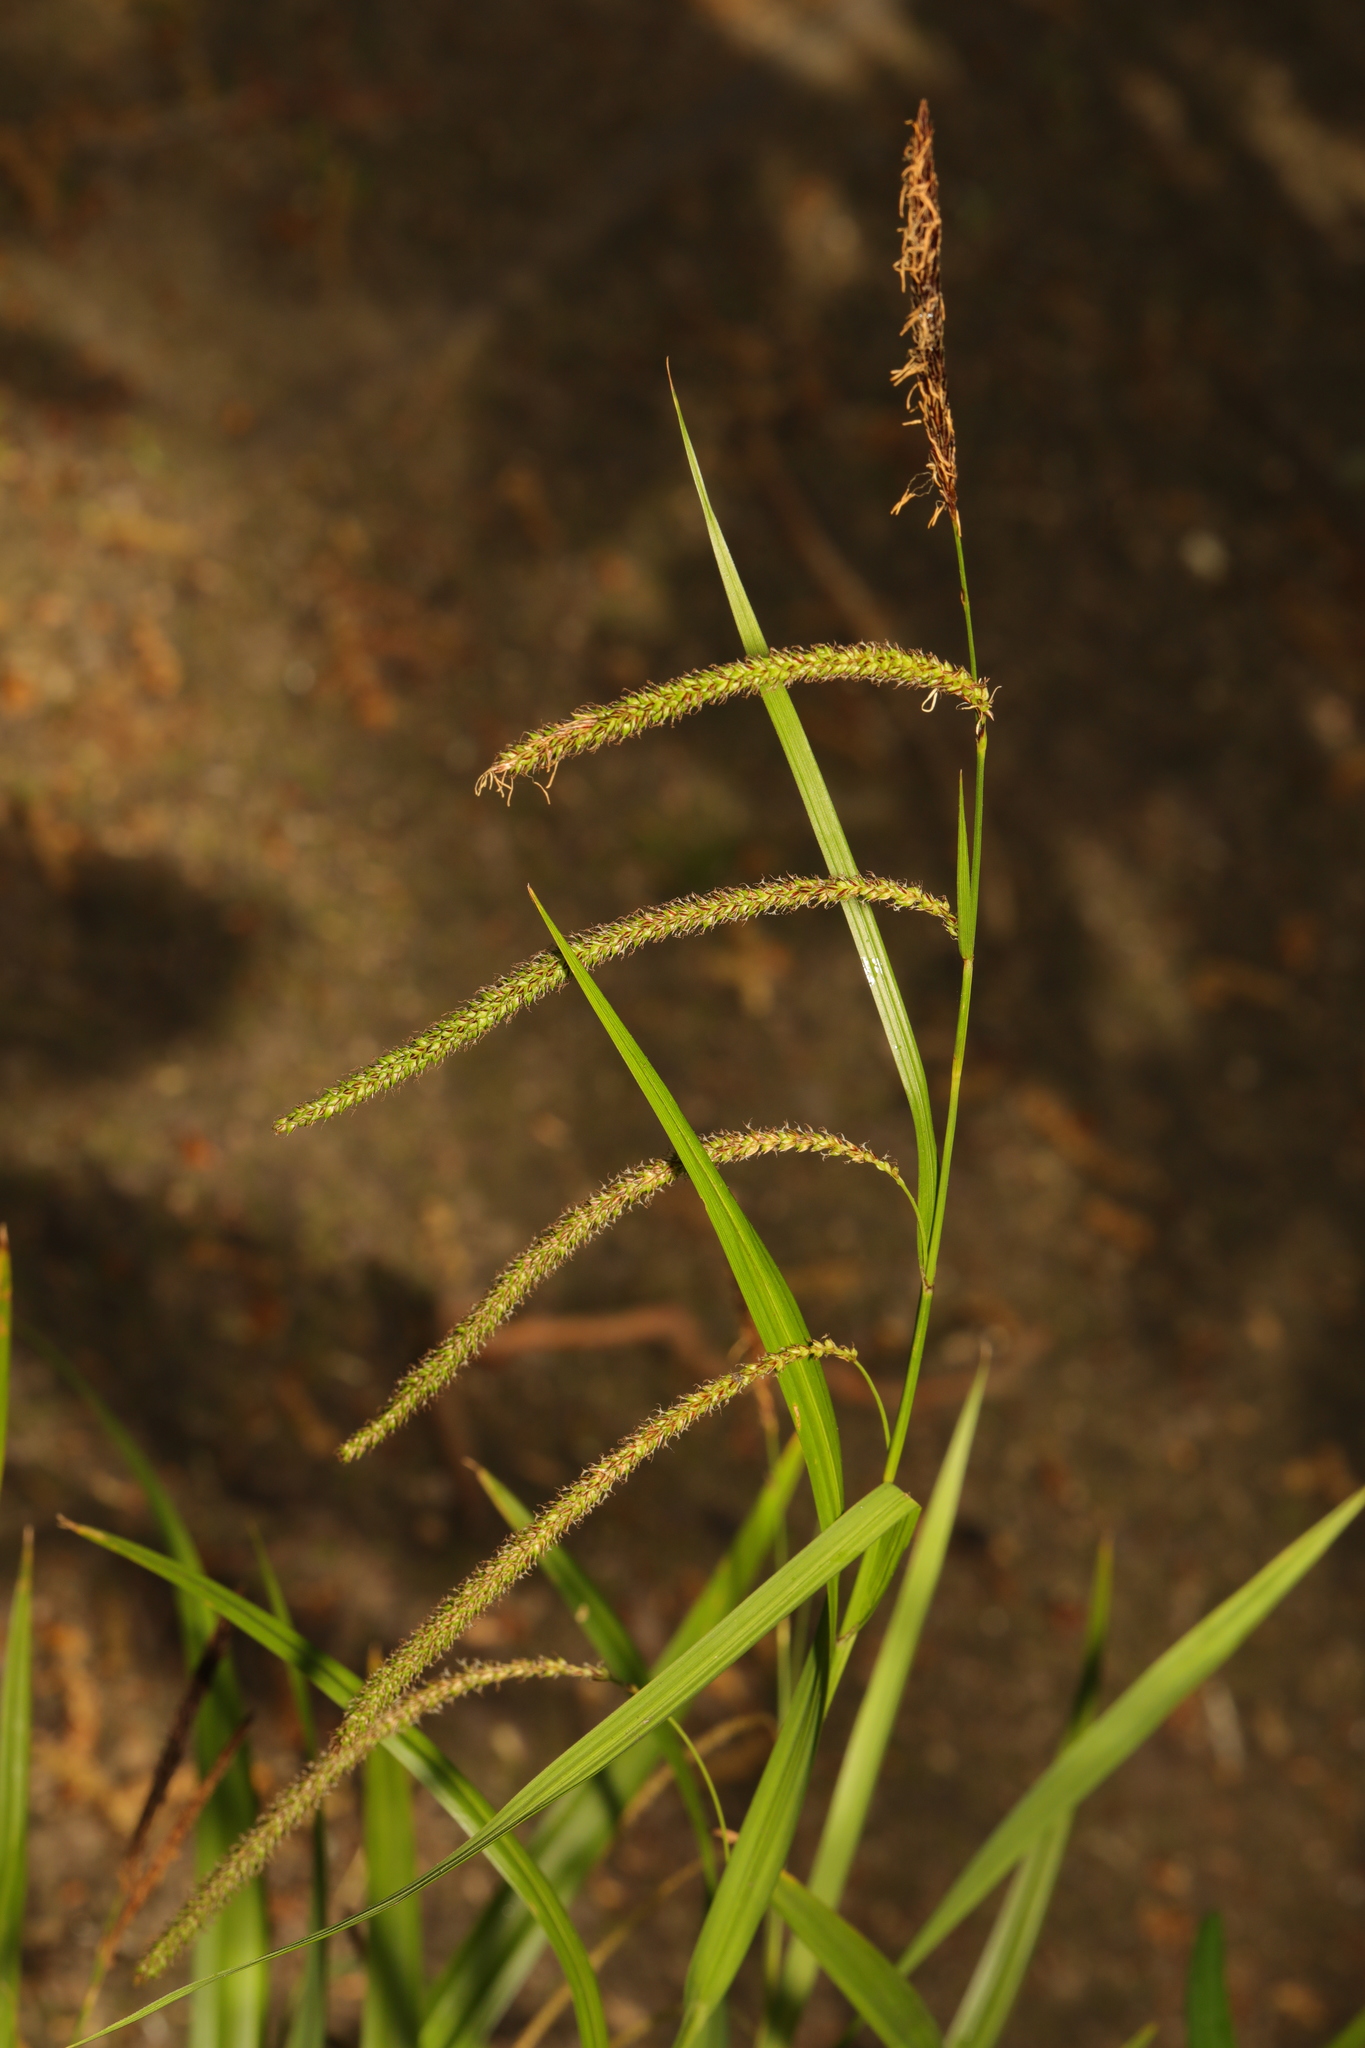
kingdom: Plantae
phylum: Tracheophyta
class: Liliopsida
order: Poales
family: Cyperaceae
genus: Carex
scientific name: Carex pendula
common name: Pendulous sedge
